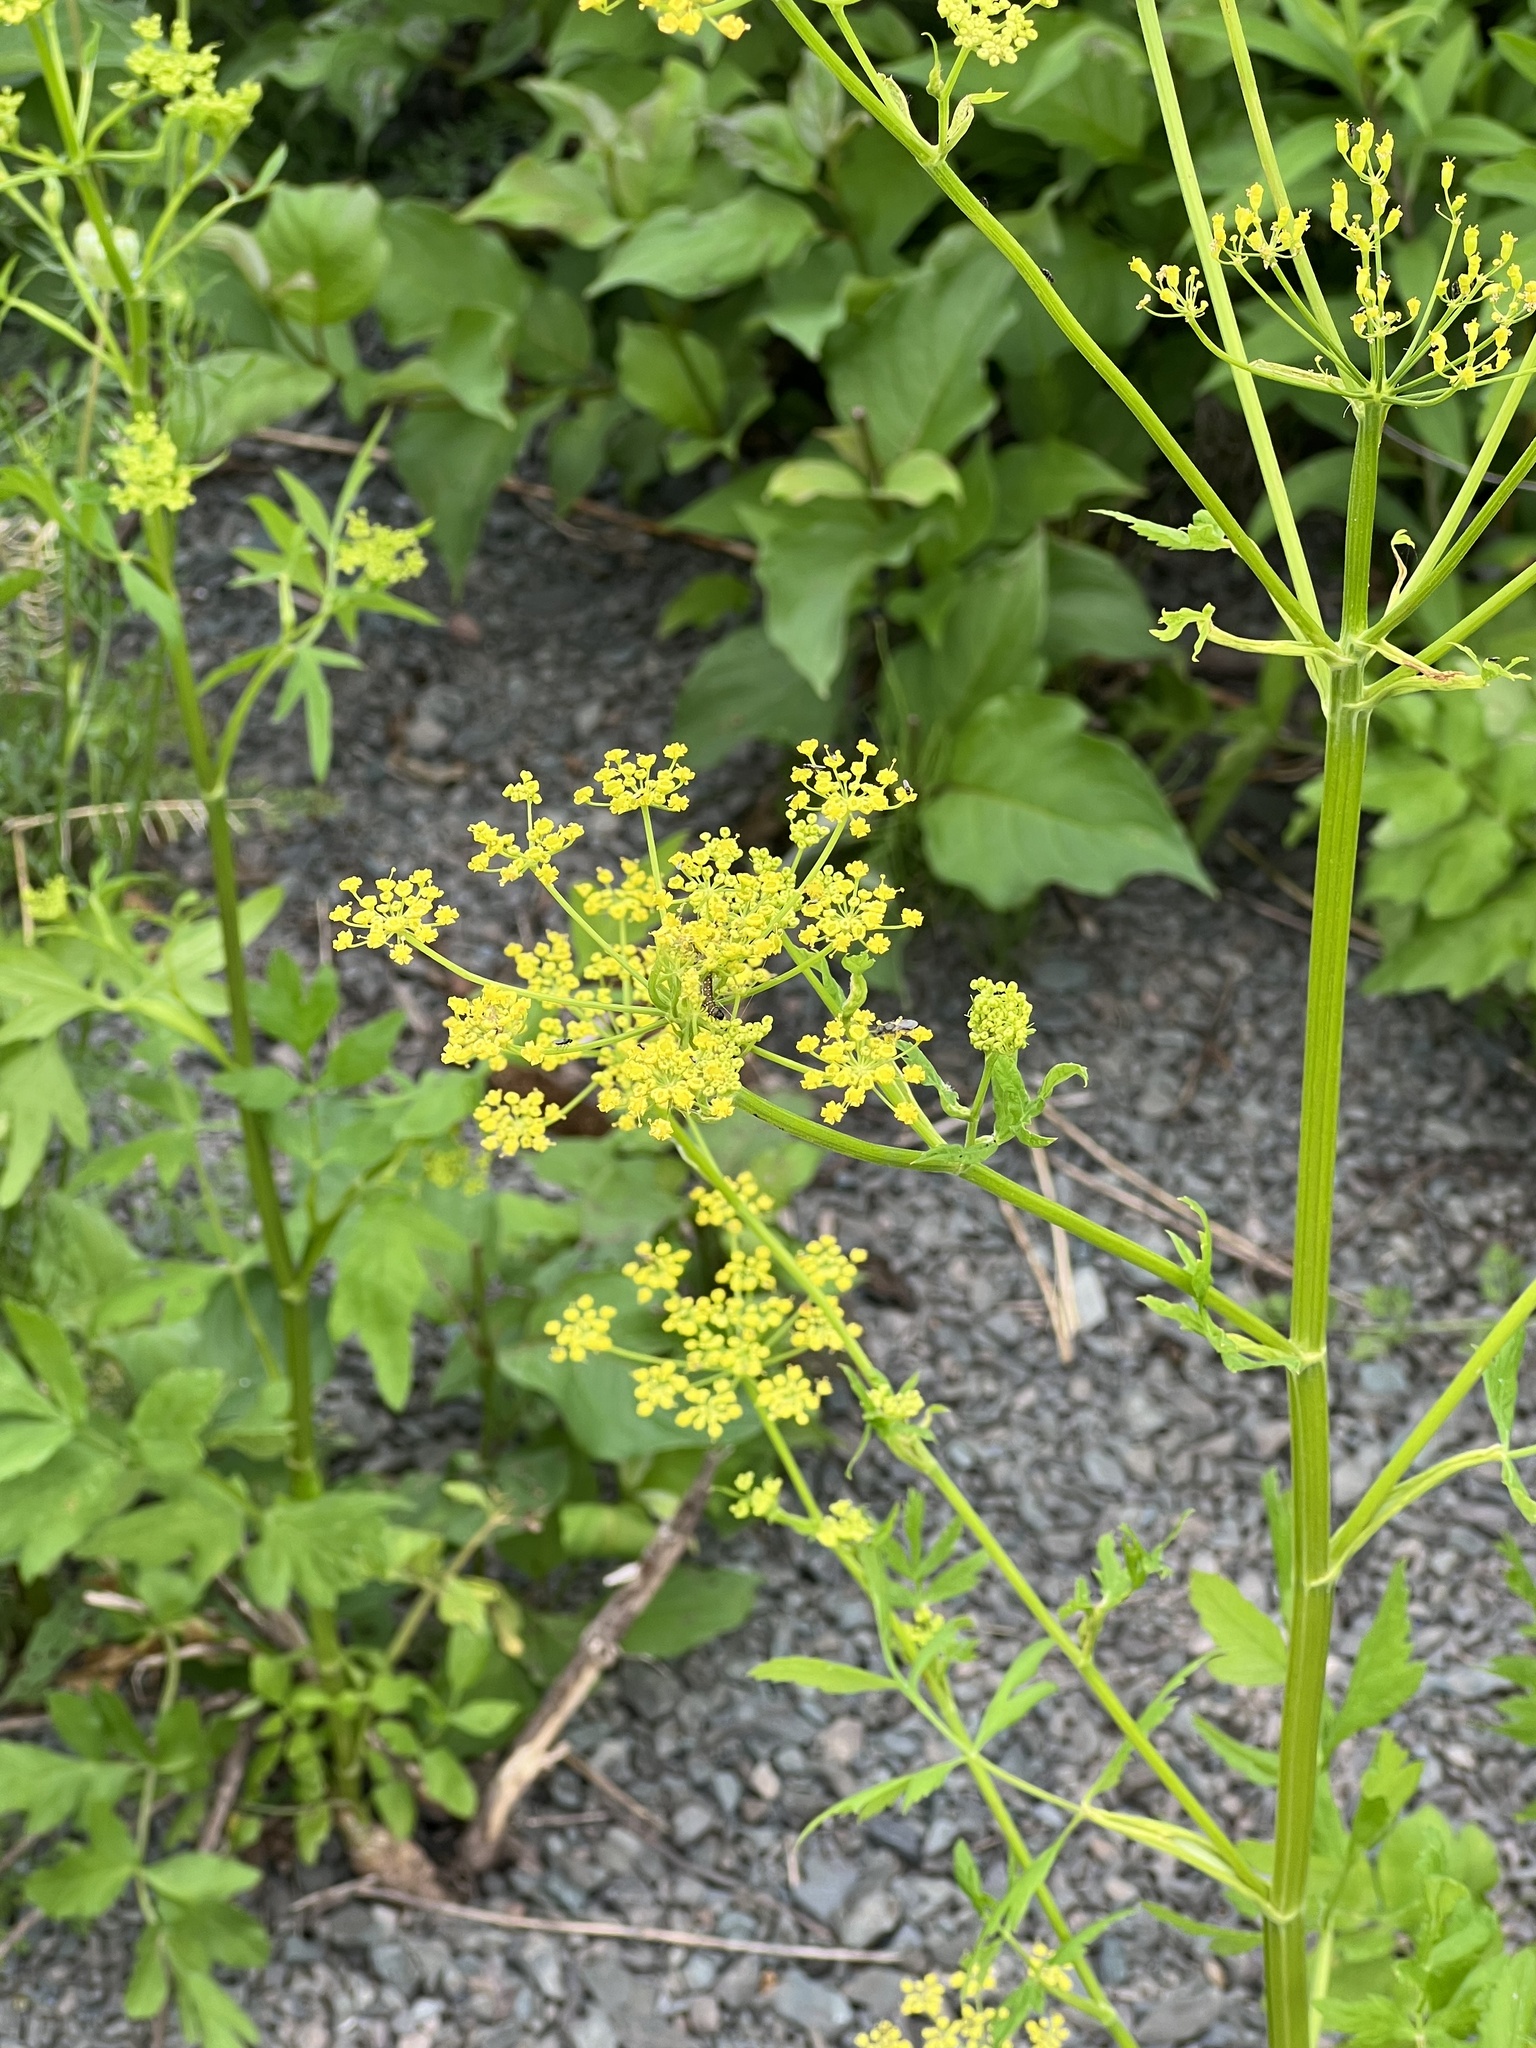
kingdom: Plantae
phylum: Tracheophyta
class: Magnoliopsida
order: Apiales
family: Apiaceae
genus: Pastinaca
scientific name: Pastinaca sativa
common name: Wild parsnip
